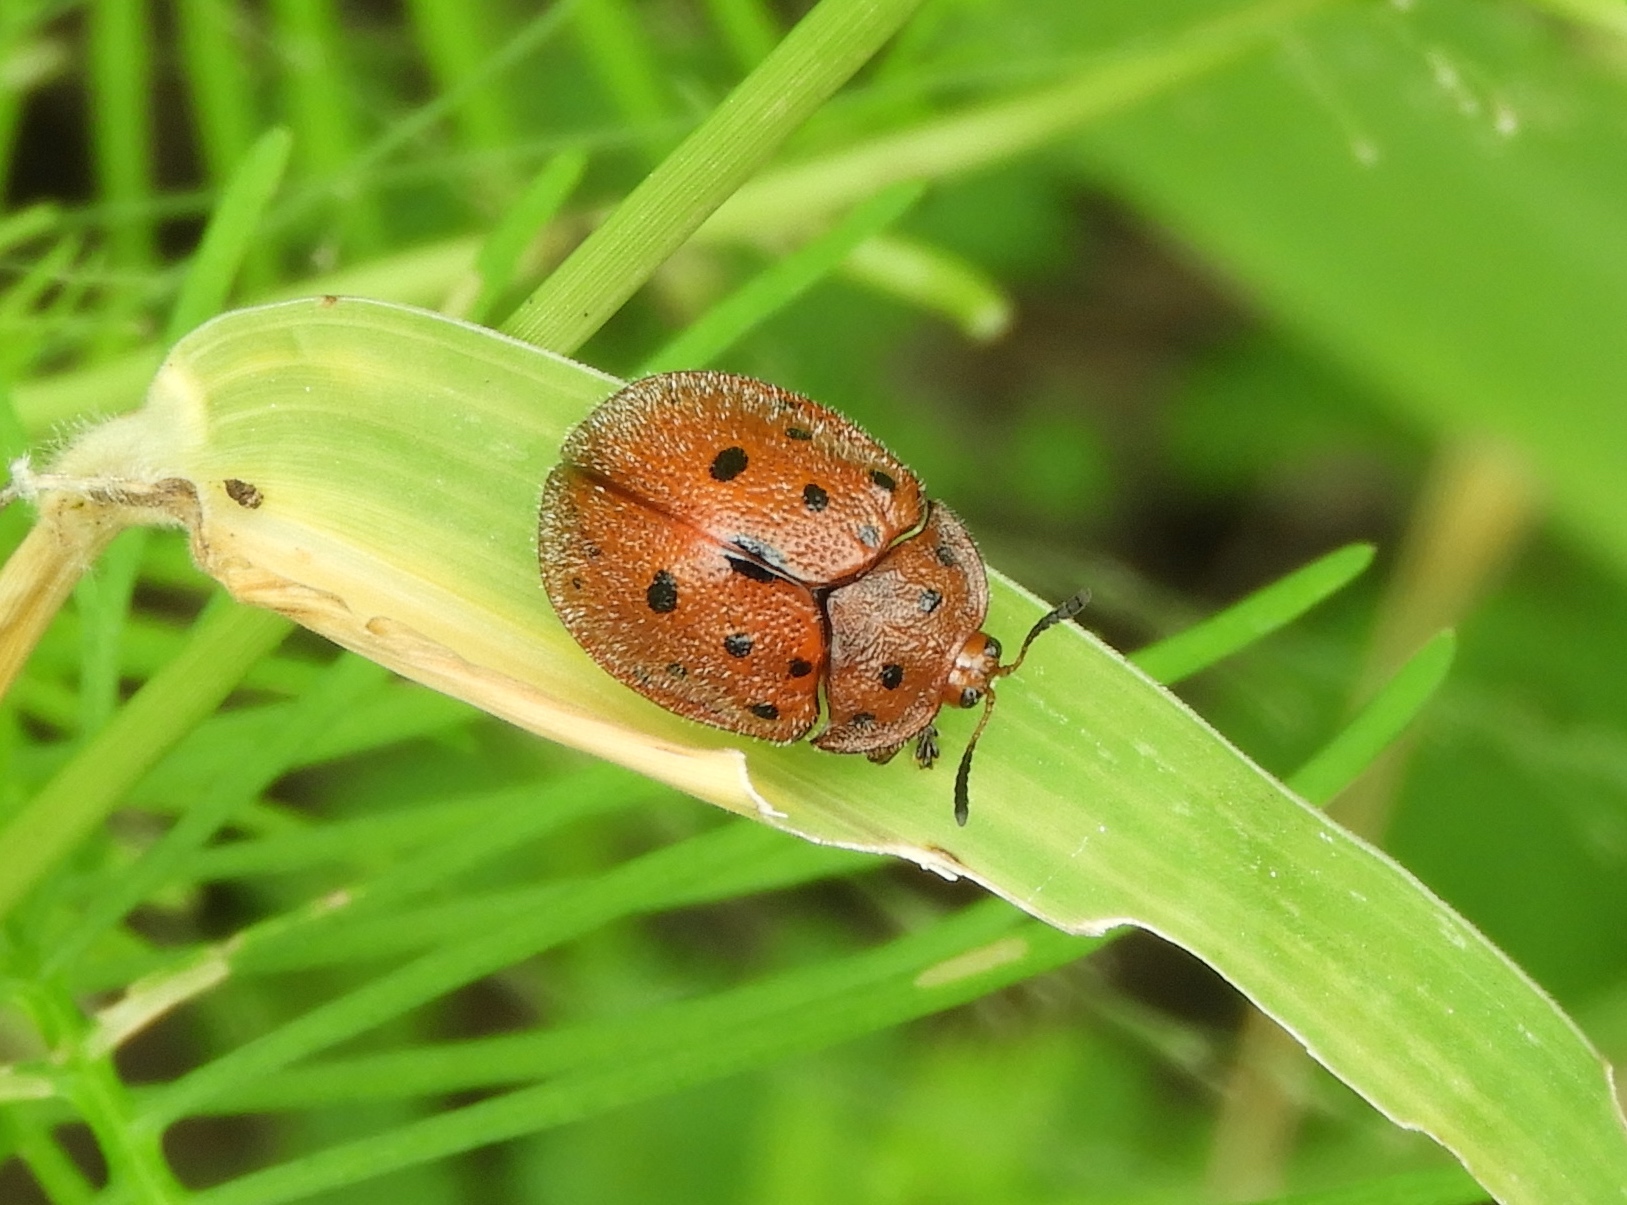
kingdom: Animalia
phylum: Arthropoda
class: Insecta
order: Coleoptera
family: Chrysomelidae
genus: Chelymorpha
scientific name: Chelymorpha
